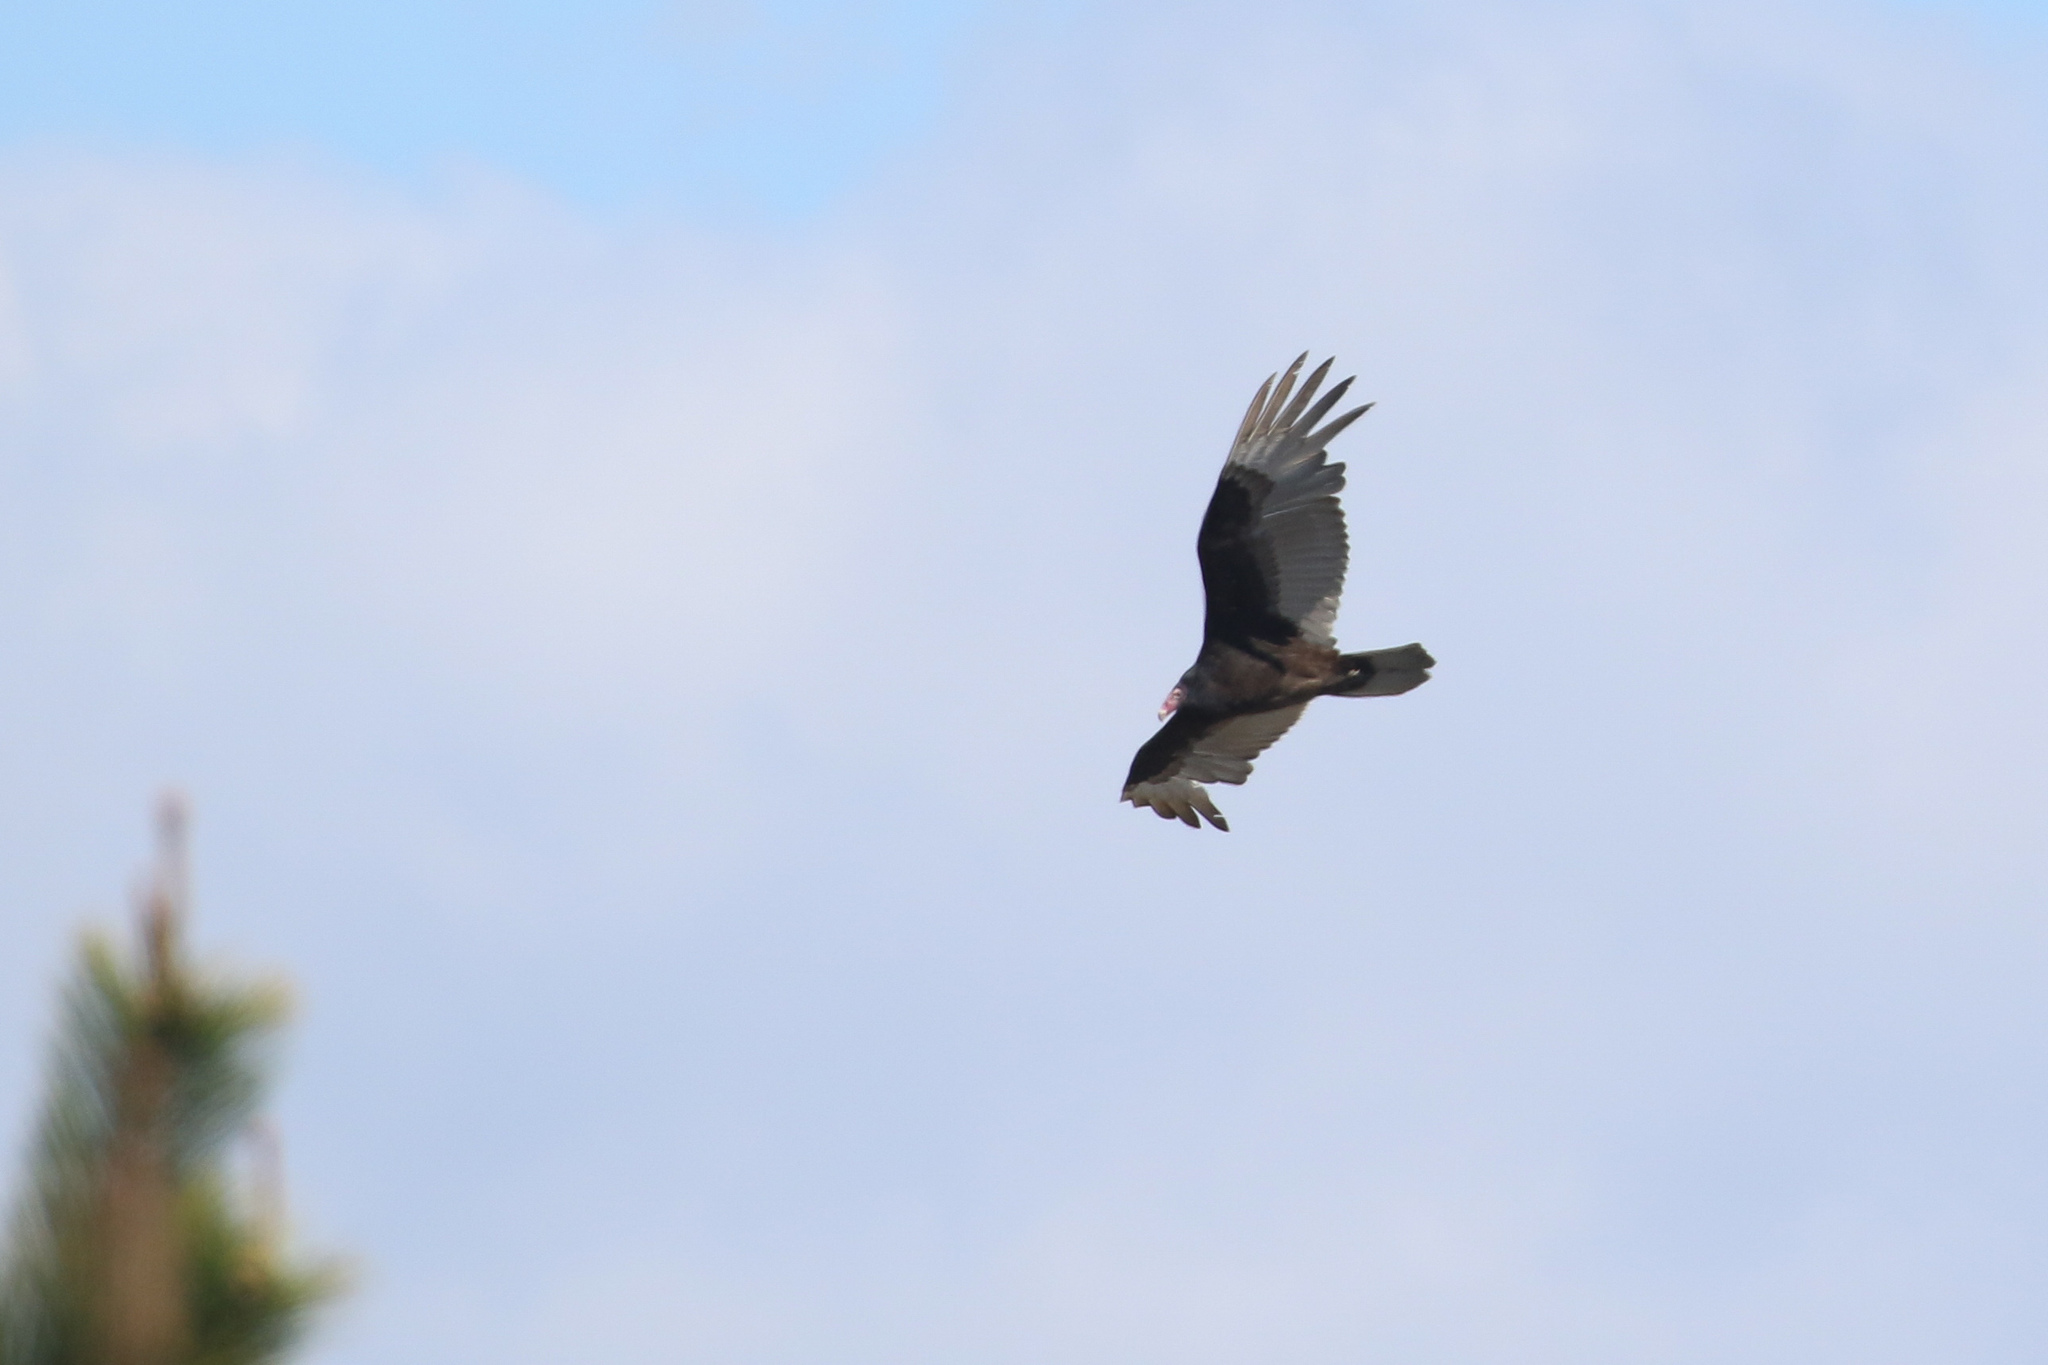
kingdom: Animalia
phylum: Chordata
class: Aves
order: Accipitriformes
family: Cathartidae
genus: Cathartes
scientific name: Cathartes aura
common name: Turkey vulture
